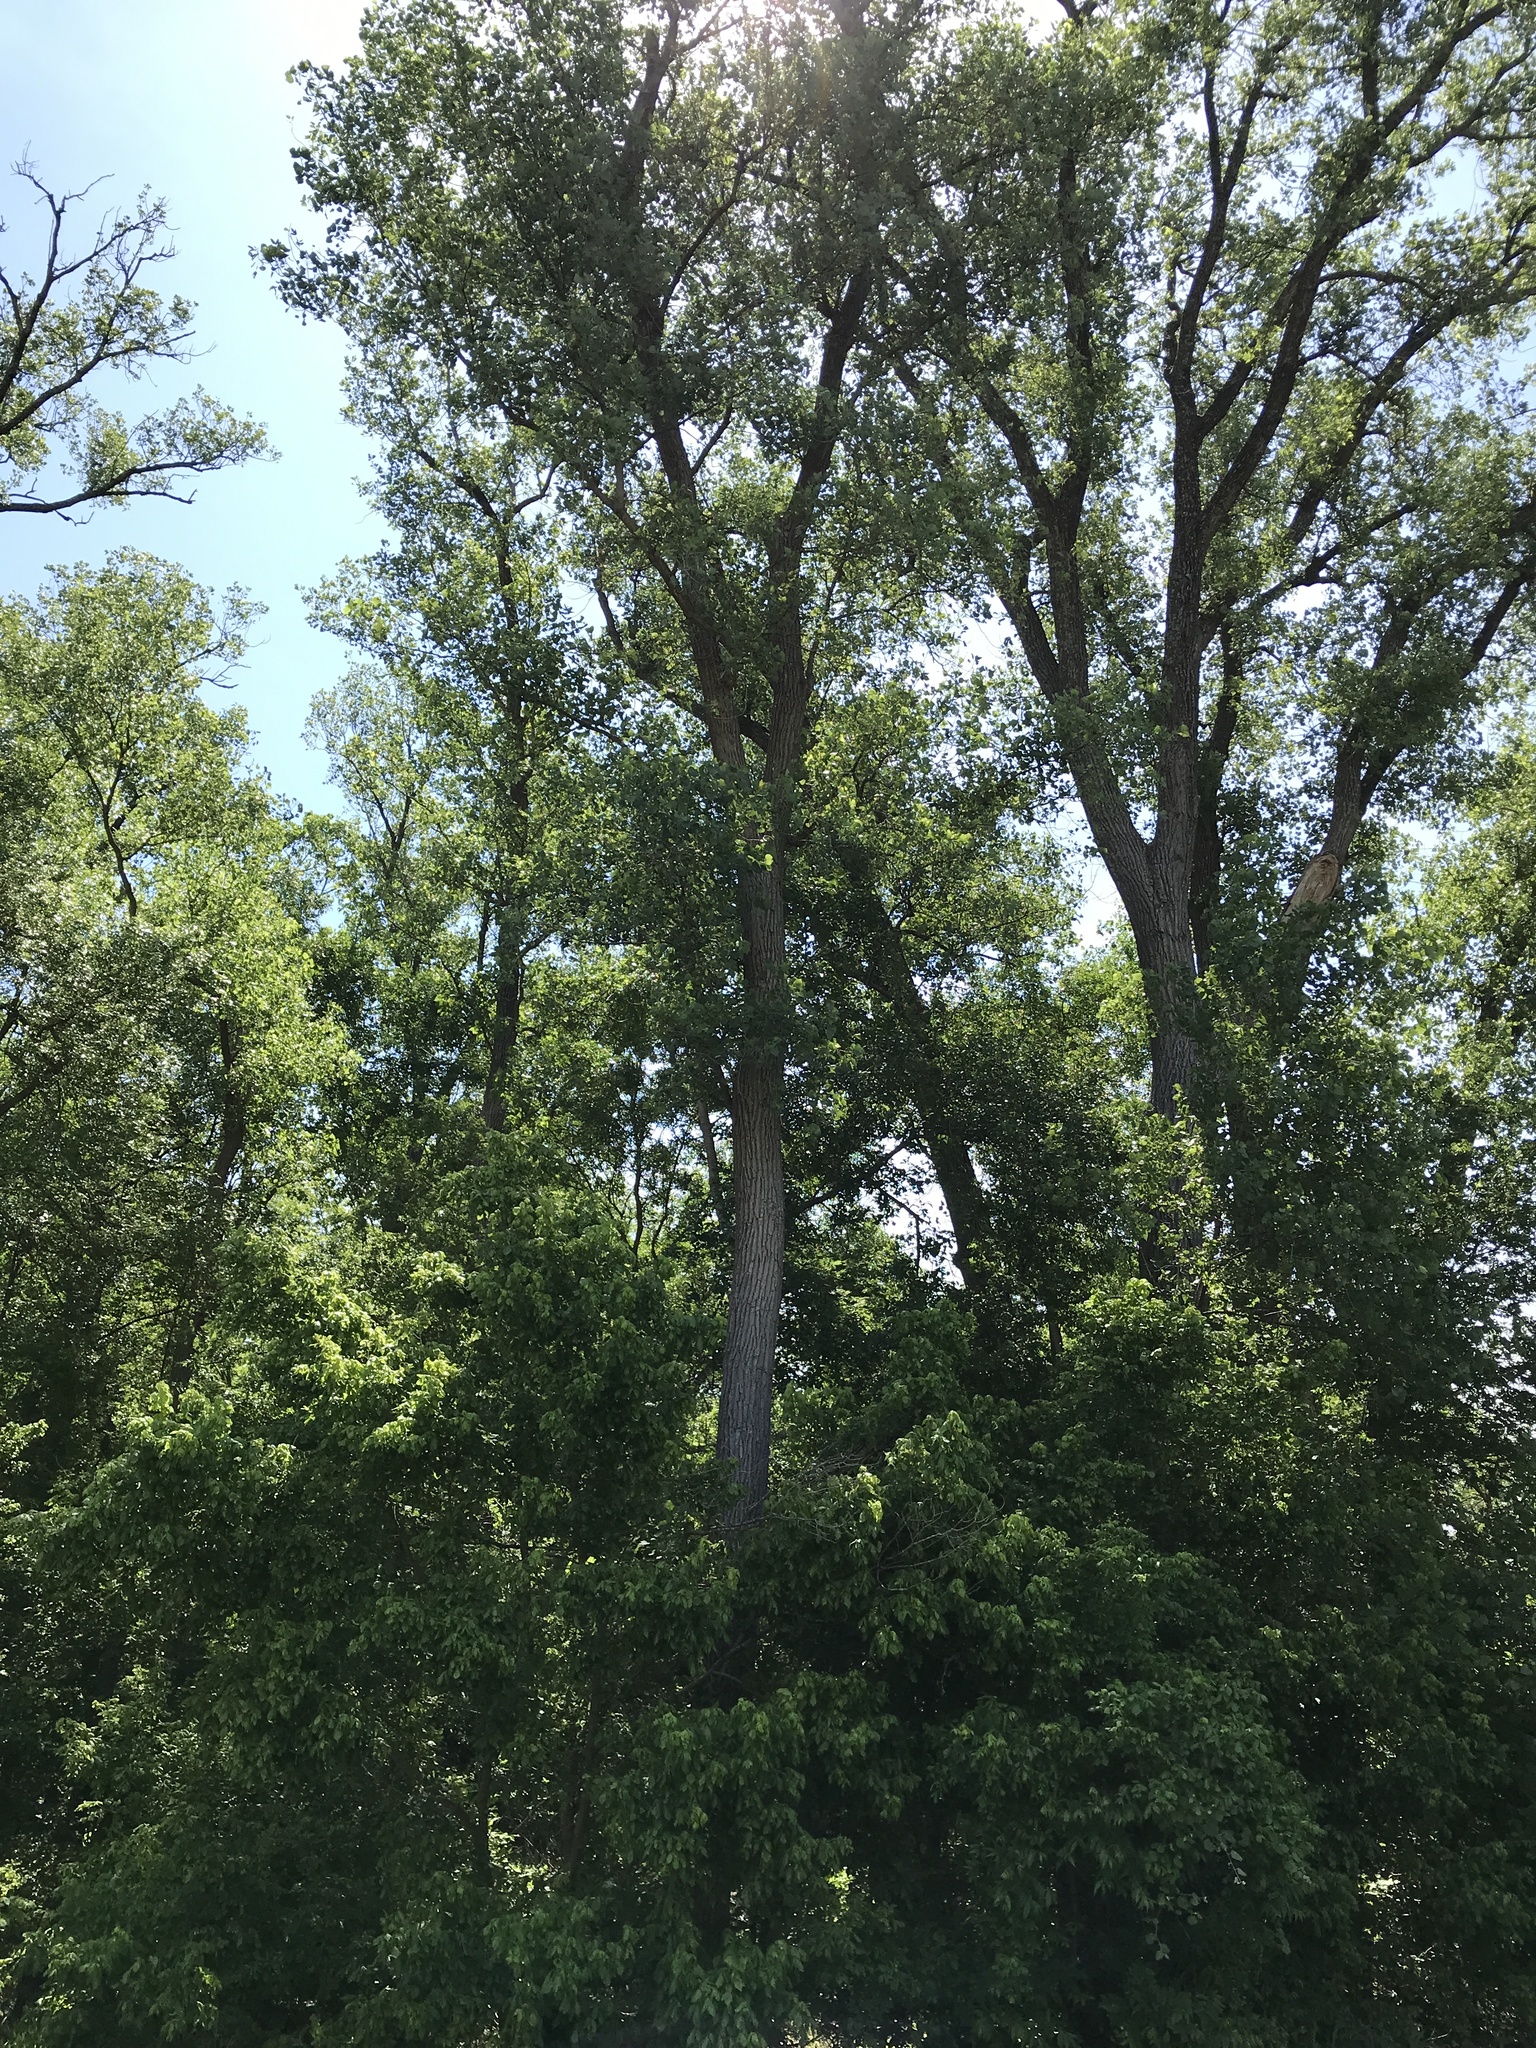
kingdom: Plantae
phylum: Tracheophyta
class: Magnoliopsida
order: Malpighiales
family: Salicaceae
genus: Populus
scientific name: Populus deltoides
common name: Eastern cottonwood
